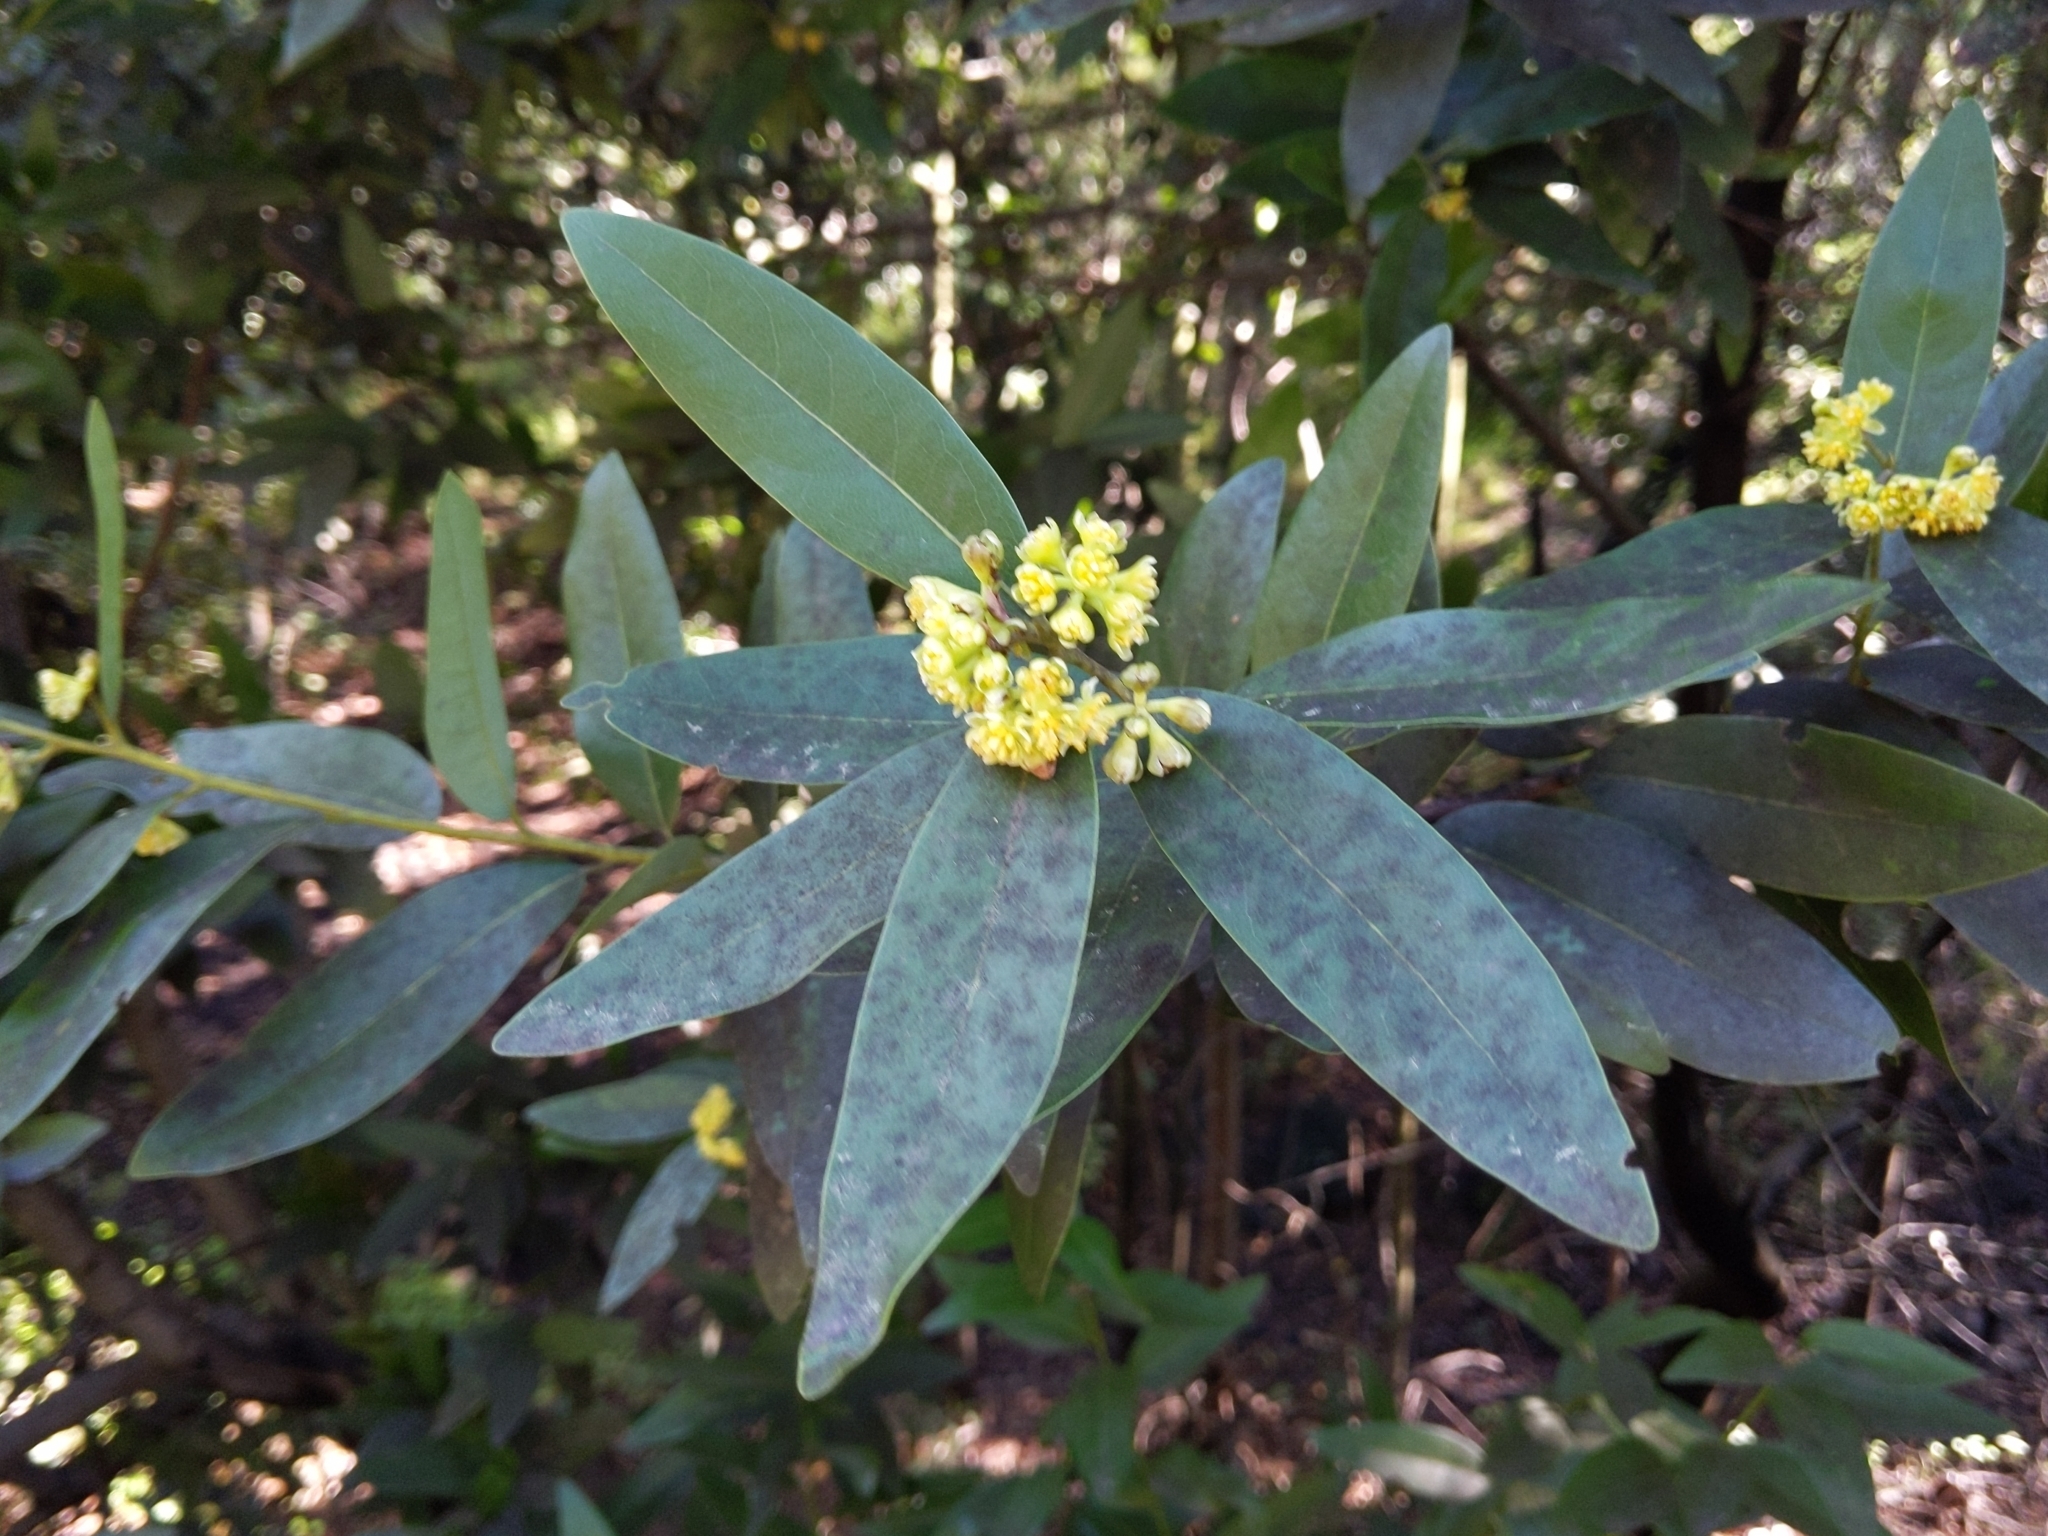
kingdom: Plantae
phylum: Tracheophyta
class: Magnoliopsida
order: Laurales
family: Lauraceae
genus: Umbellularia
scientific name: Umbellularia californica
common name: California bay
